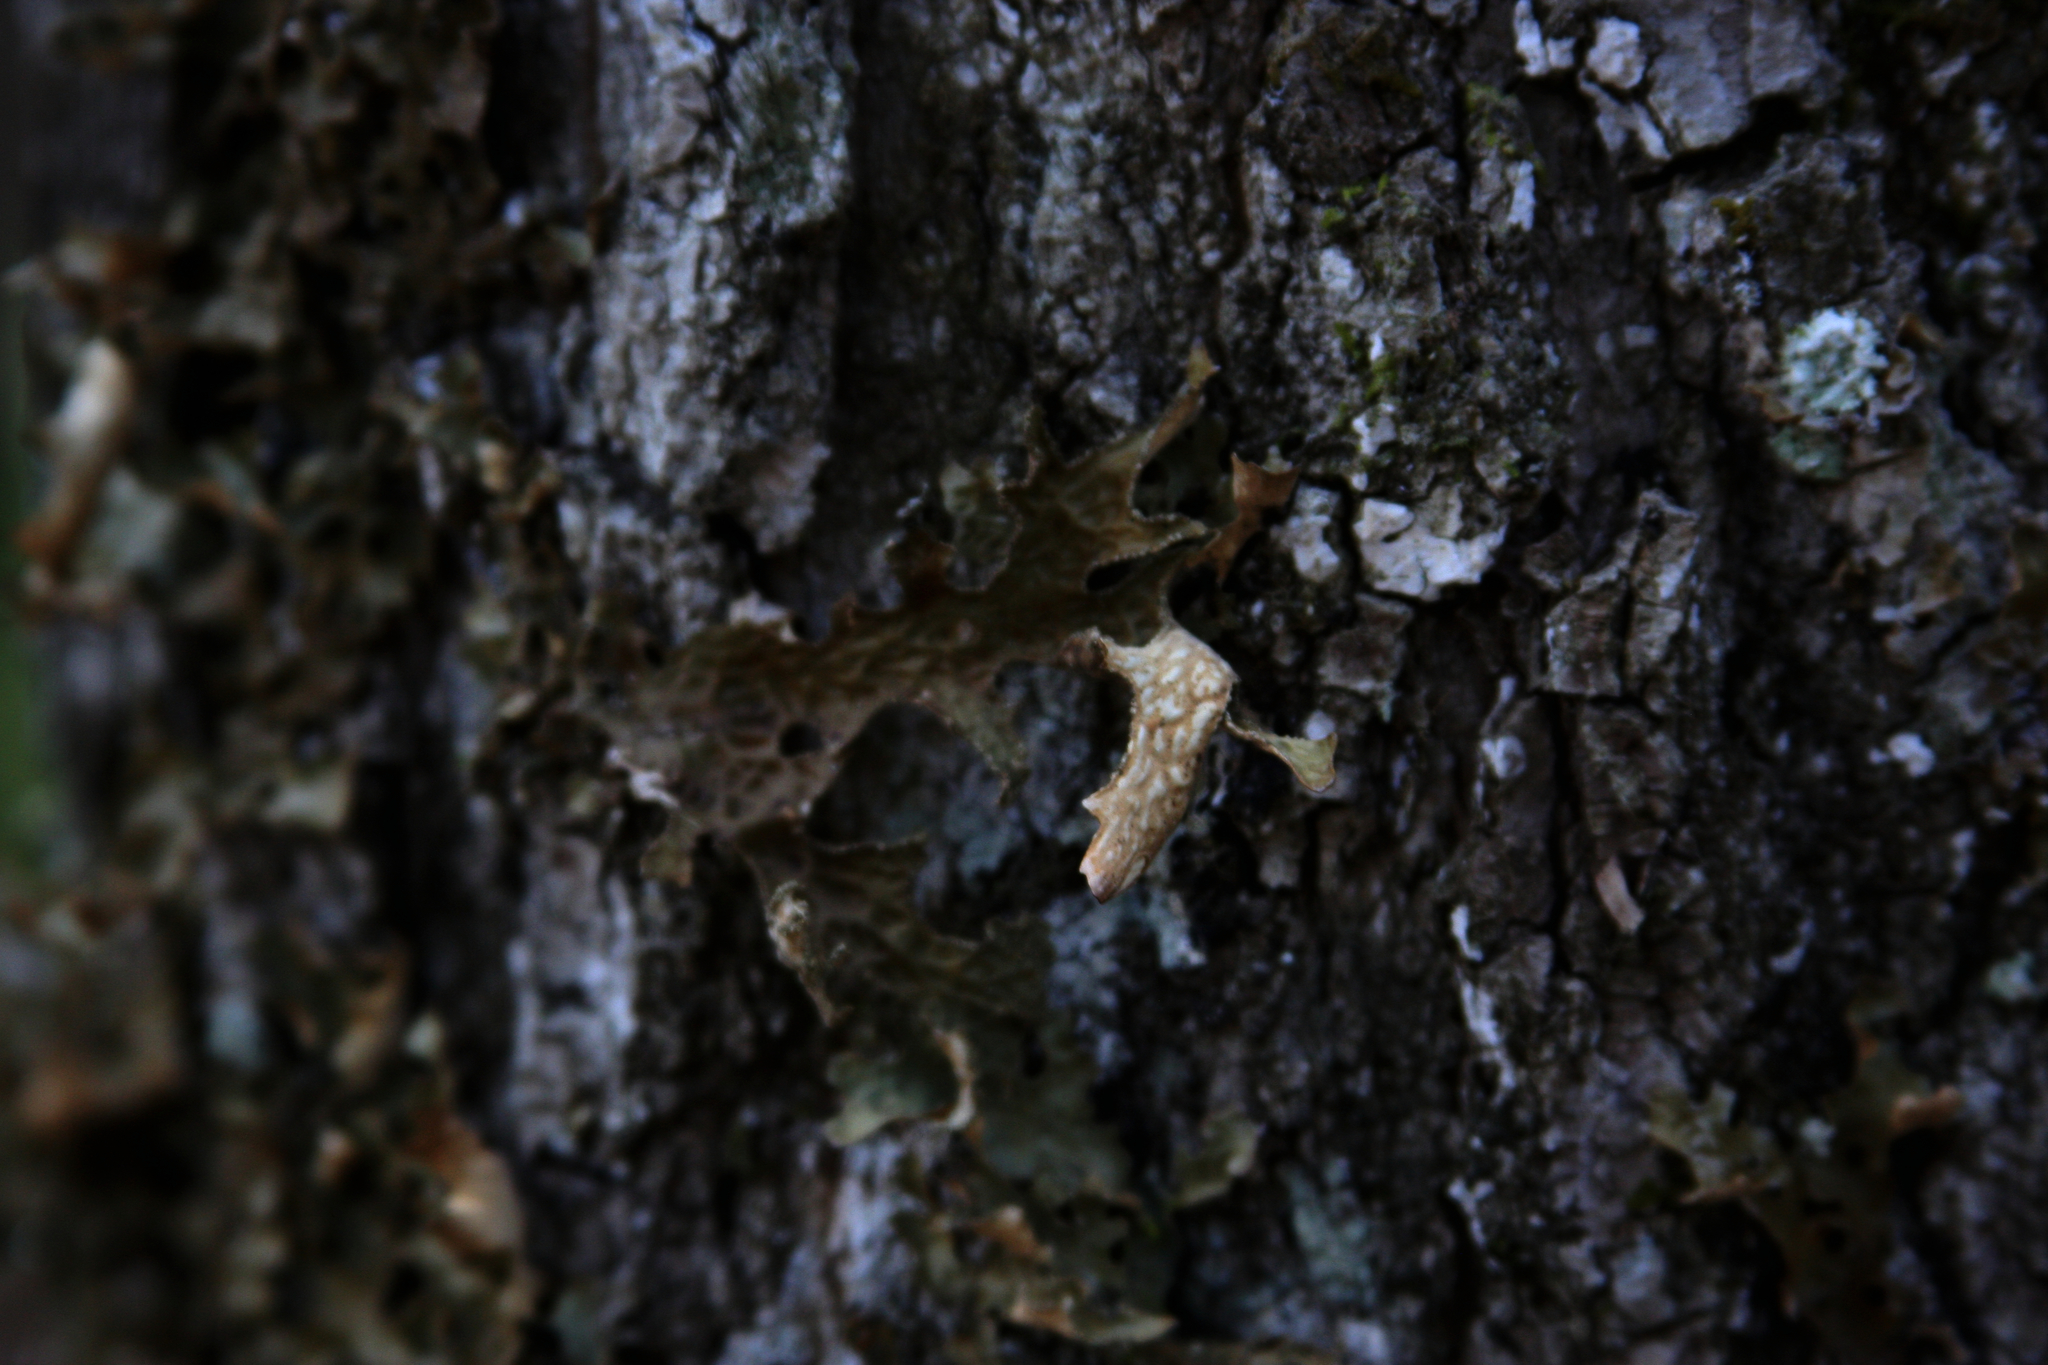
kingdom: Fungi
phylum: Ascomycota
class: Lecanoromycetes
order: Peltigerales
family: Lobariaceae
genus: Lobaria
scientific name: Lobaria pulmonaria
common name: Lungwort
